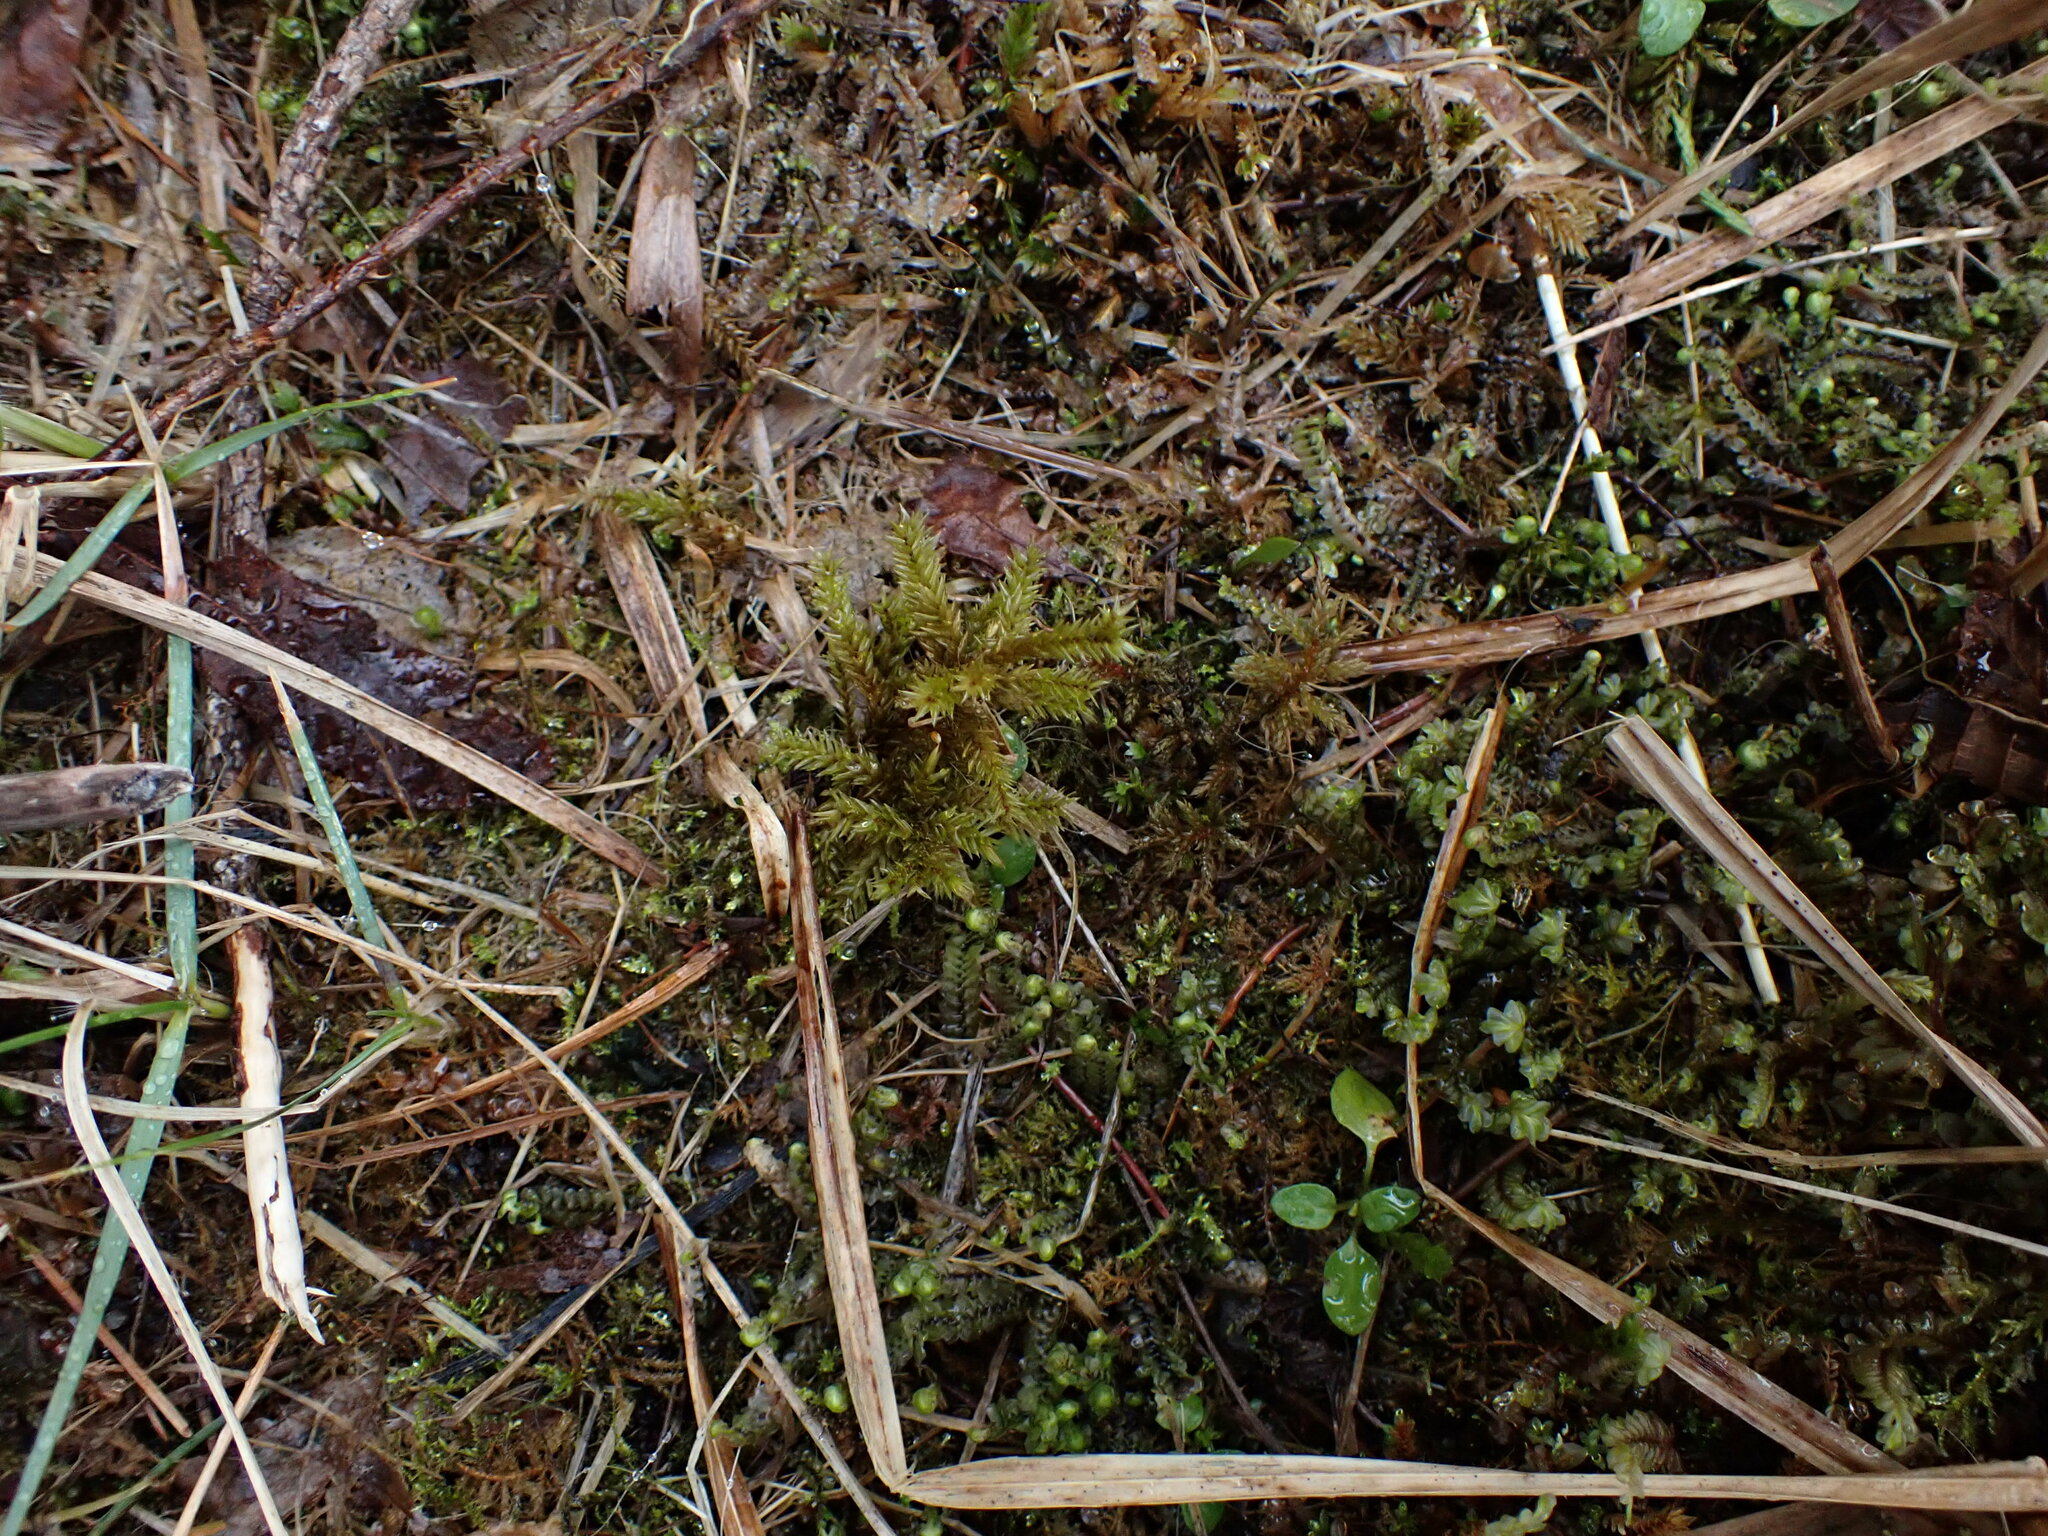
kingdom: Plantae
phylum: Bryophyta
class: Bryopsida
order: Hypnales
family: Climaciaceae
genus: Climacium
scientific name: Climacium dendroides
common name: Northern tree moss
